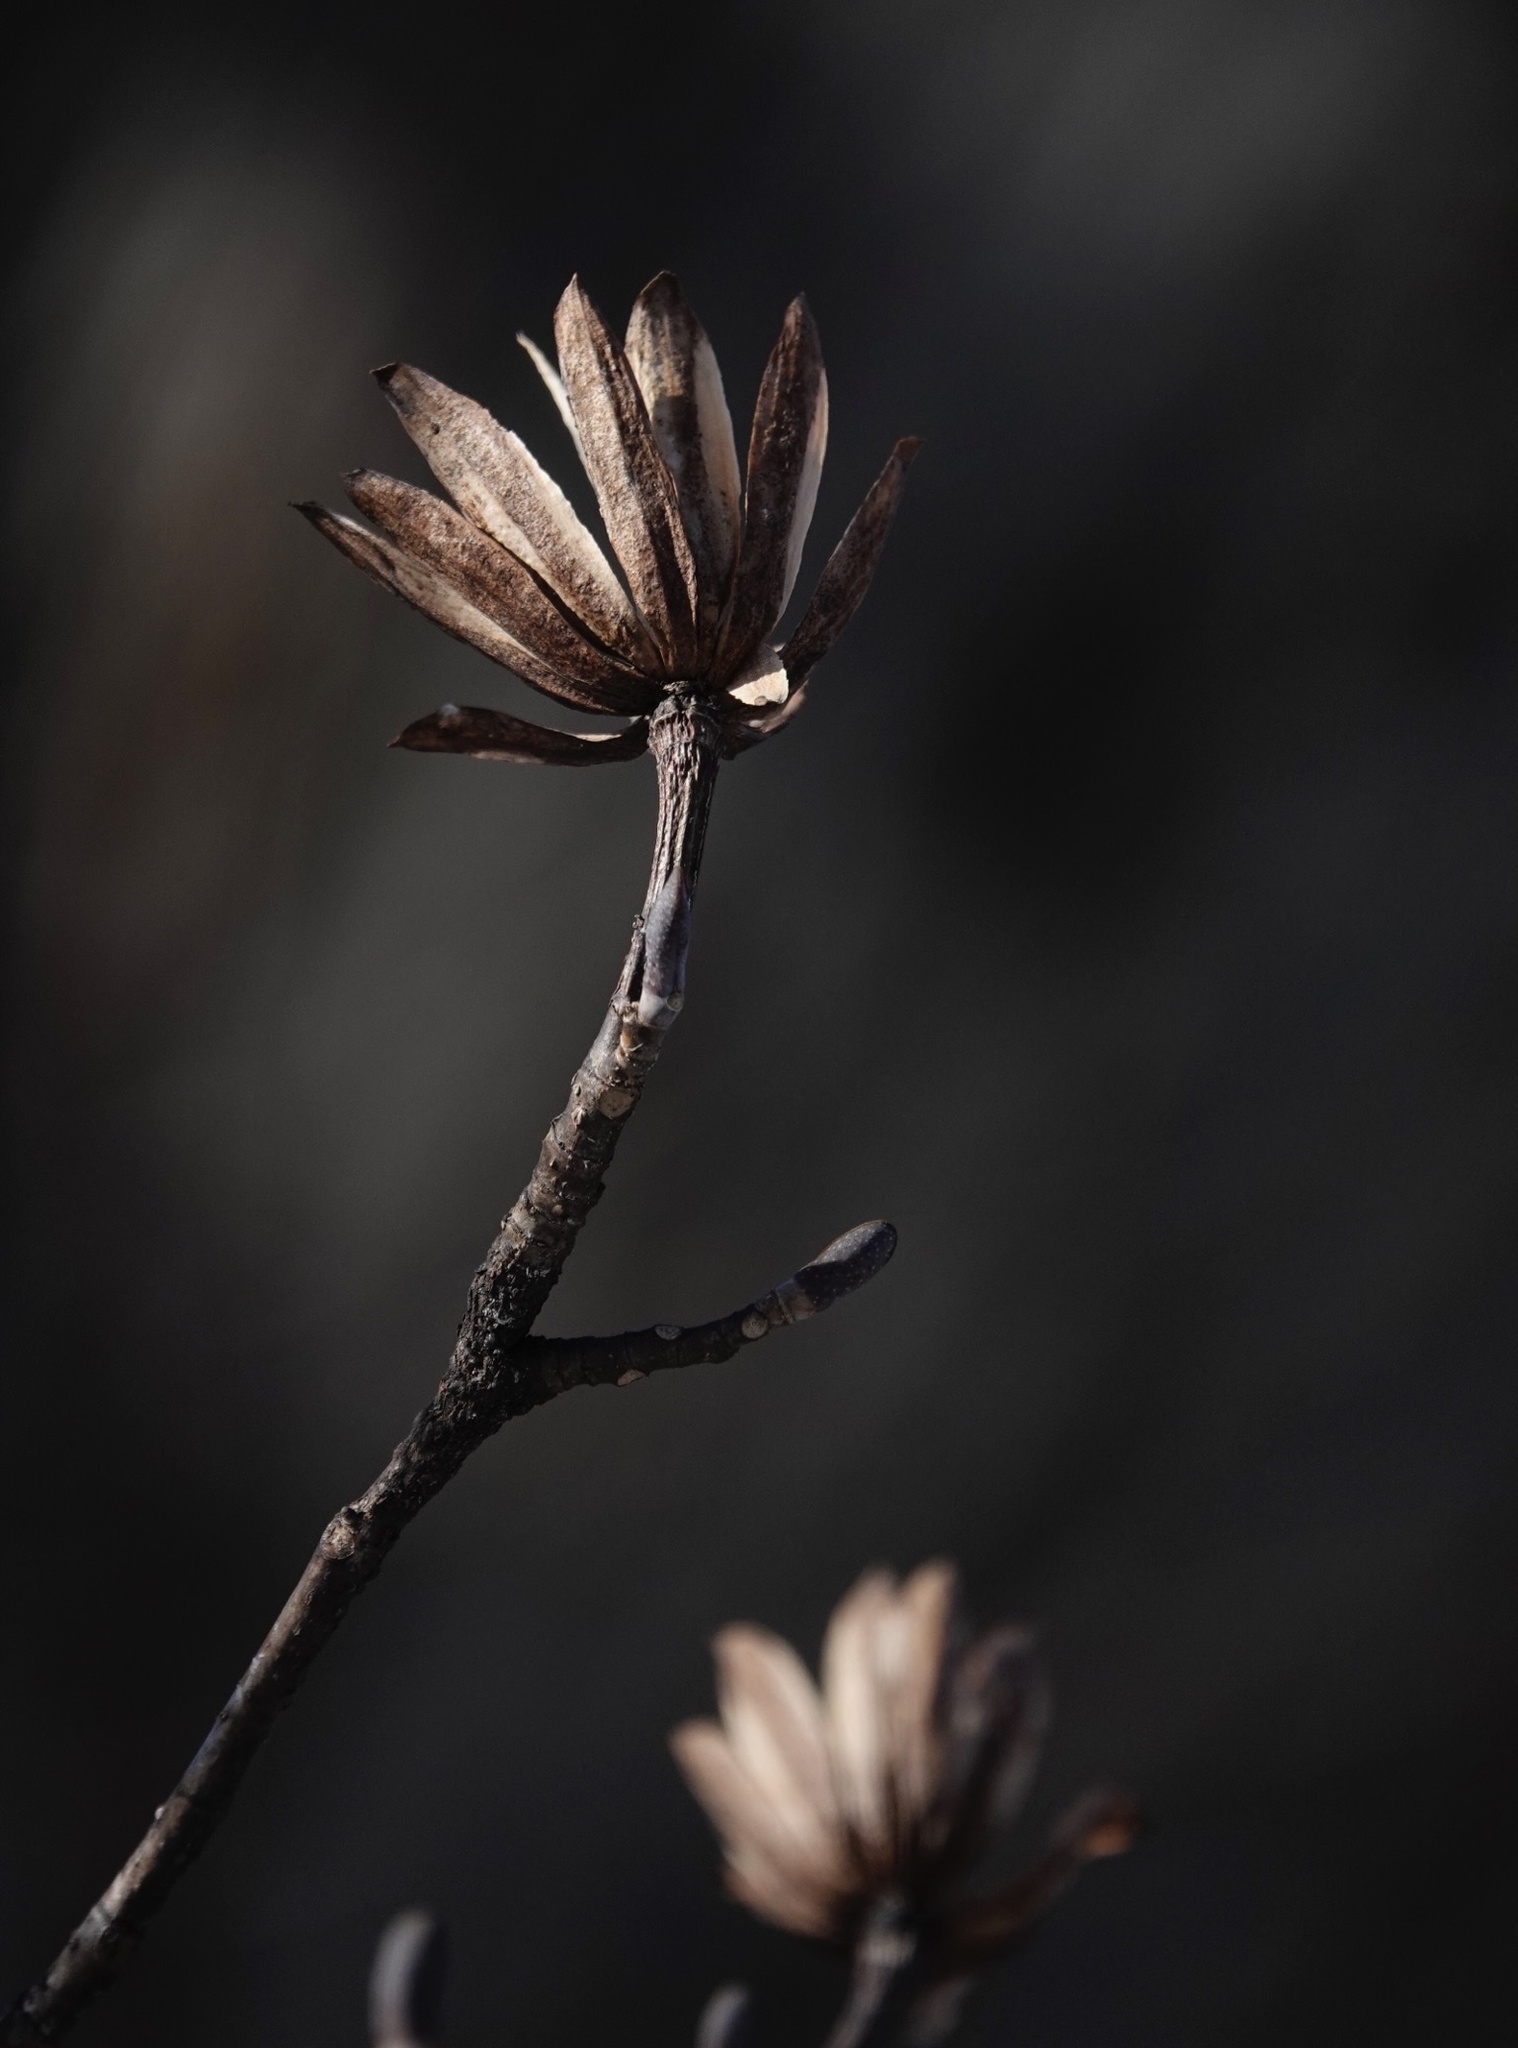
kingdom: Plantae
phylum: Tracheophyta
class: Magnoliopsida
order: Magnoliales
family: Magnoliaceae
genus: Liriodendron
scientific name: Liriodendron tulipifera
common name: Tulip tree
